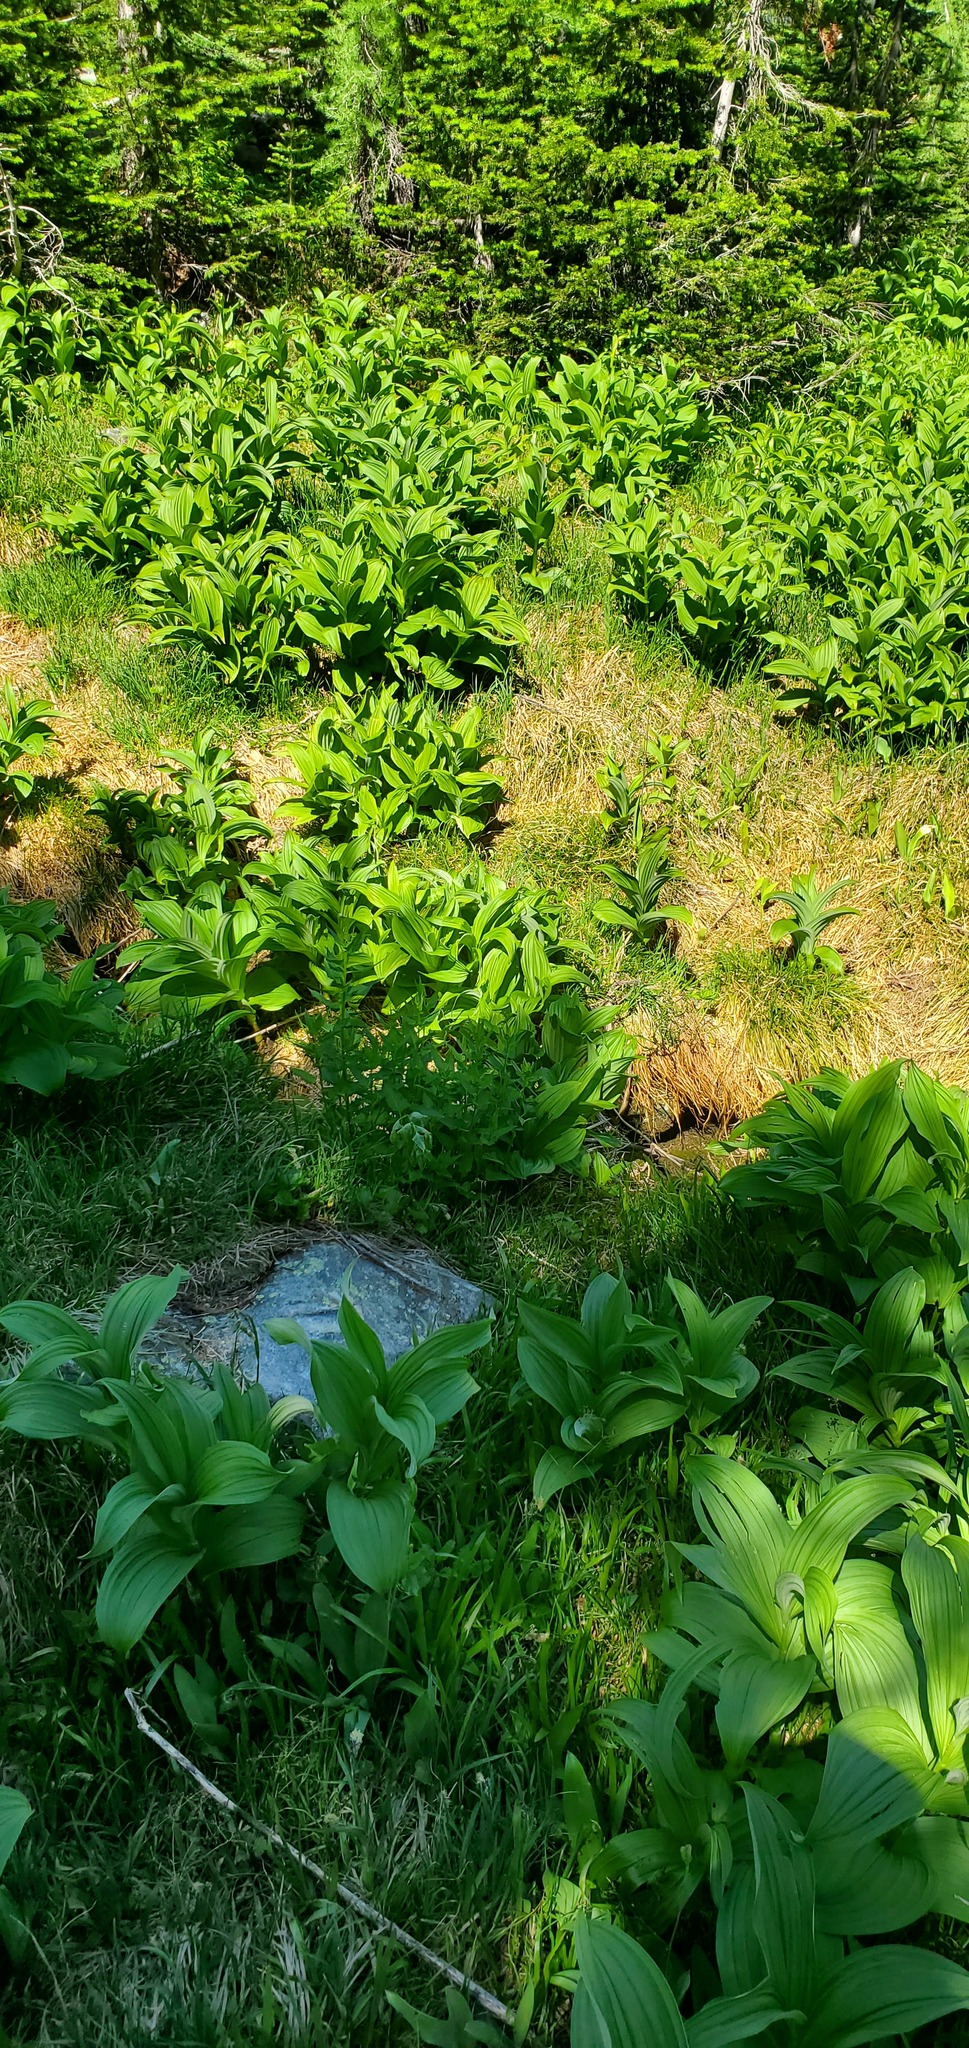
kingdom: Plantae
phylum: Tracheophyta
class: Liliopsida
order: Liliales
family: Melanthiaceae
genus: Veratrum
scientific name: Veratrum viride
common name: American false hellebore
